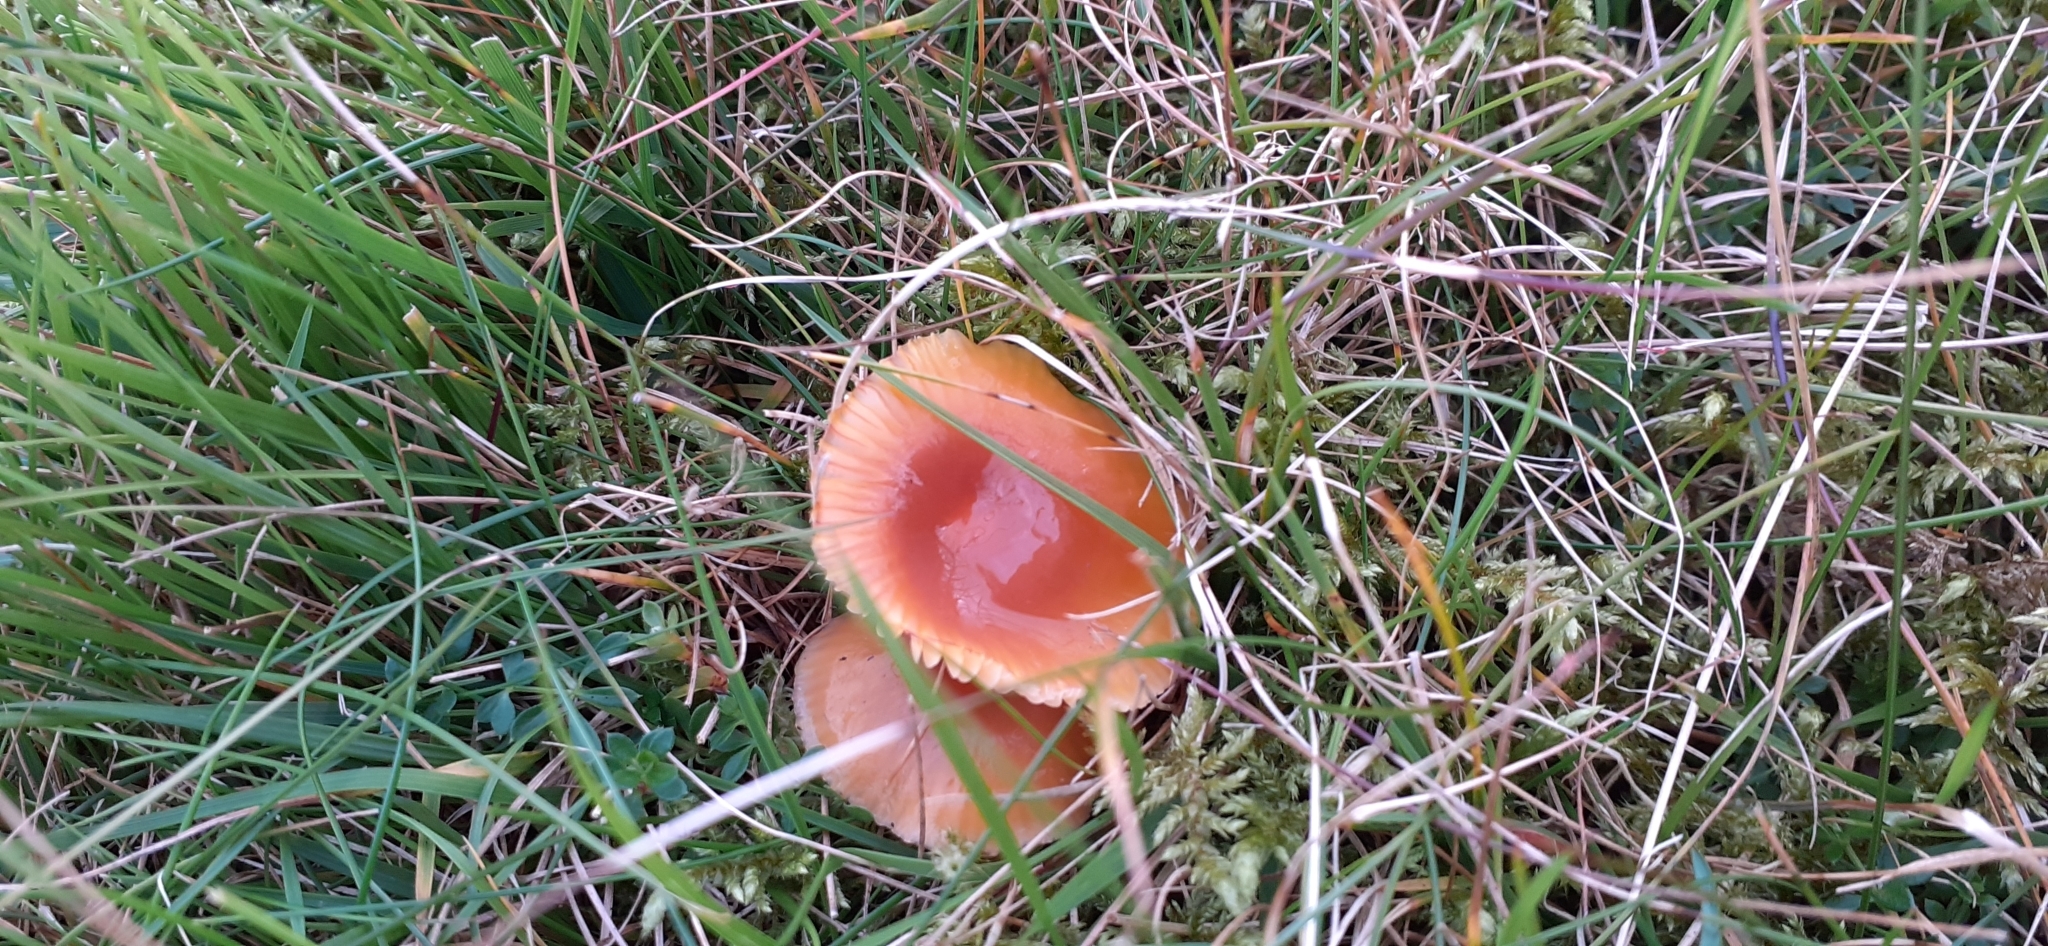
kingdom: Fungi
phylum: Basidiomycota
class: Agaricomycetes
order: Agaricales
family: Hygrophoraceae
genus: Gliophorus
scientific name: Gliophorus laetus
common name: Heath waxcap
